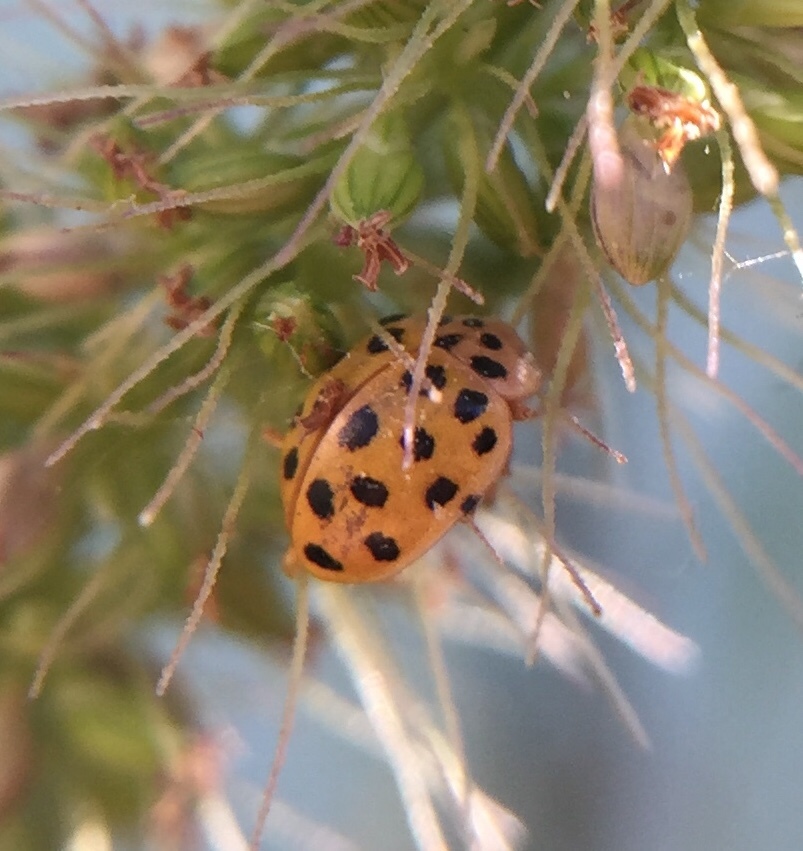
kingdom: Animalia
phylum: Arthropoda
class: Insecta
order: Coleoptera
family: Coccinellidae
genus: Psyllobora
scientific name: Psyllobora vigintiduopunctata
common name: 22-spot ladybird
